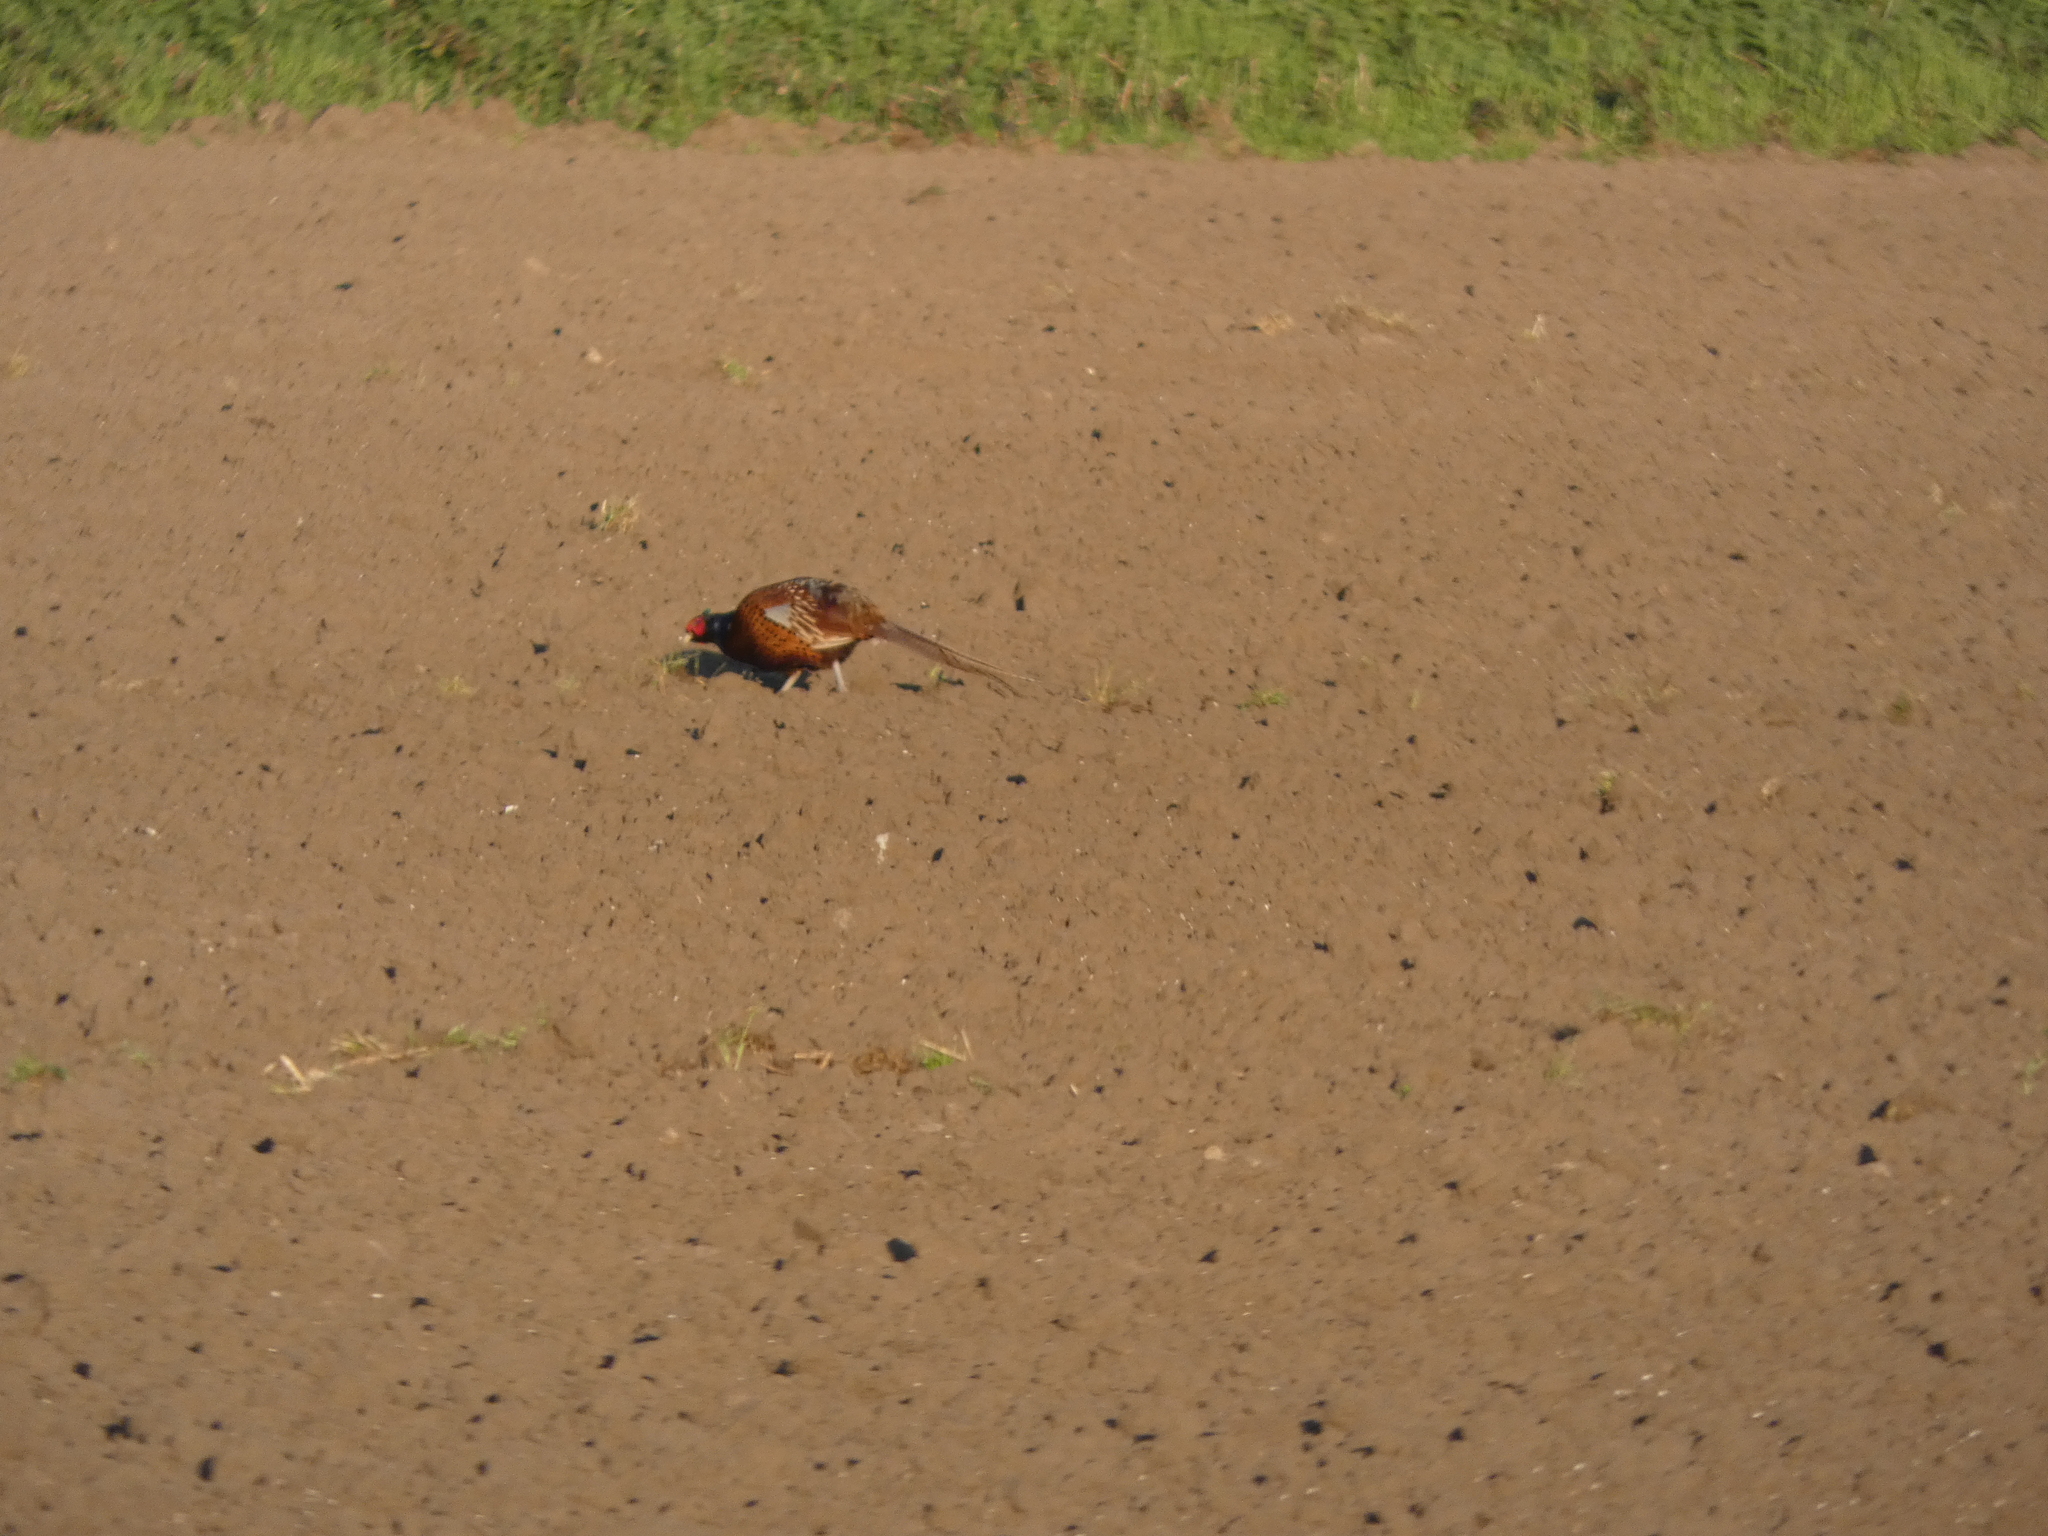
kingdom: Animalia
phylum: Chordata
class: Aves
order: Galliformes
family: Phasianidae
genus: Phasianus
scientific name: Phasianus colchicus
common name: Common pheasant
